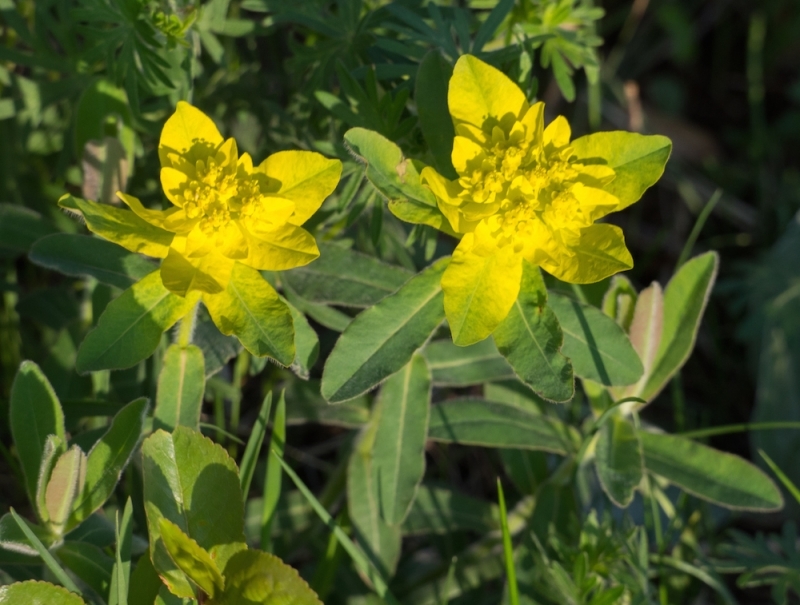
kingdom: Plantae
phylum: Tracheophyta
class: Magnoliopsida
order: Malpighiales
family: Euphorbiaceae
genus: Euphorbia
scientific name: Euphorbia epithymoides
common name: Cushion spurge
